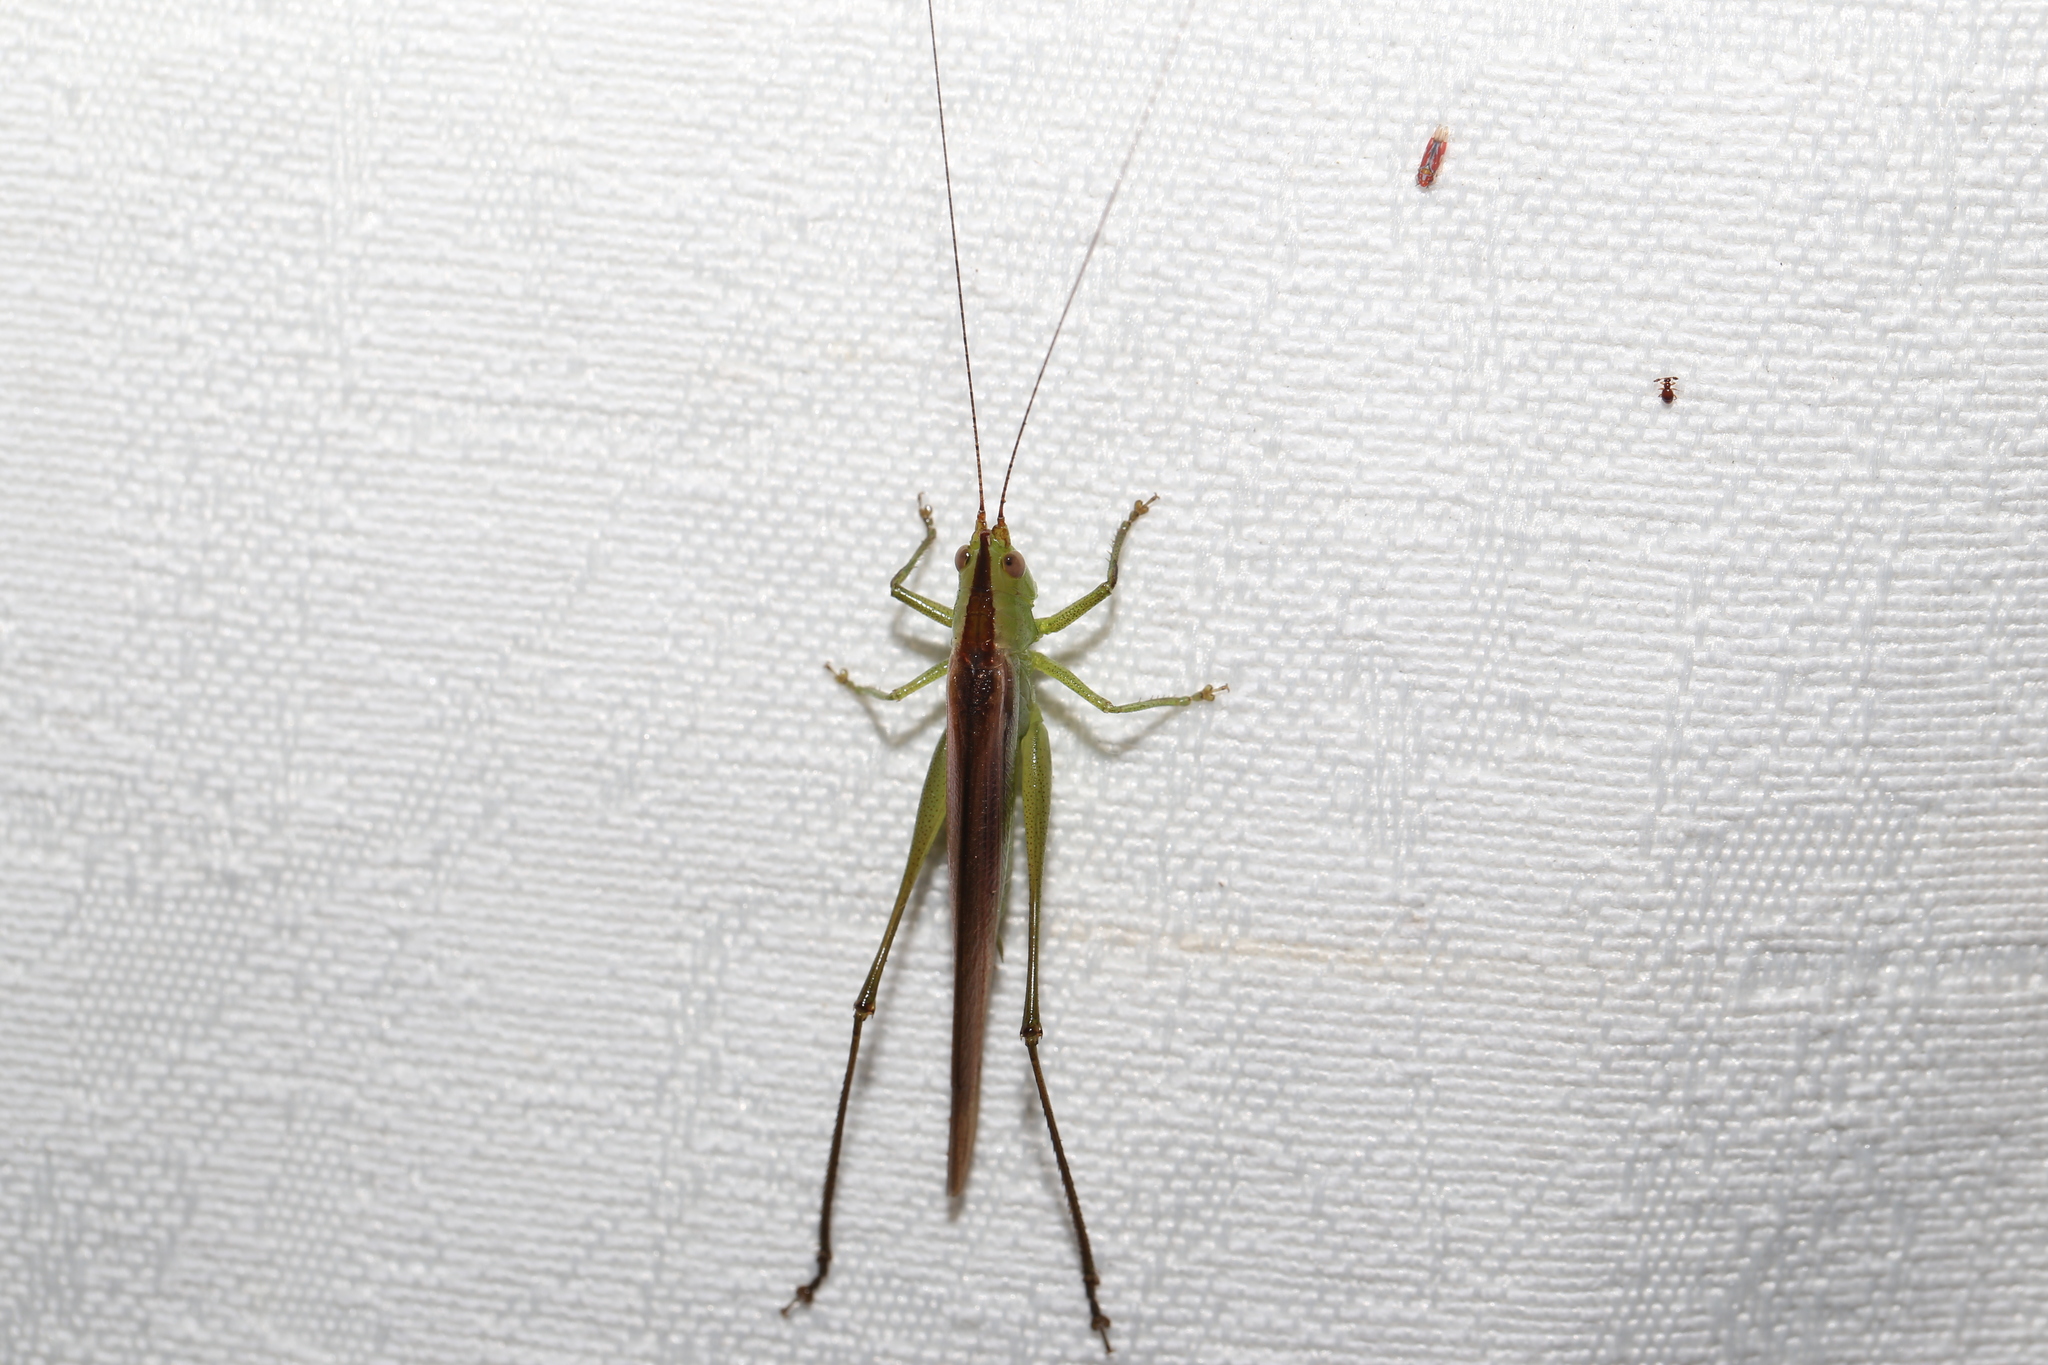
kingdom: Animalia
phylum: Arthropoda
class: Insecta
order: Orthoptera
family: Tettigoniidae
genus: Conocephalus
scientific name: Conocephalus upoluensis
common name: Upolu meadow katydid
